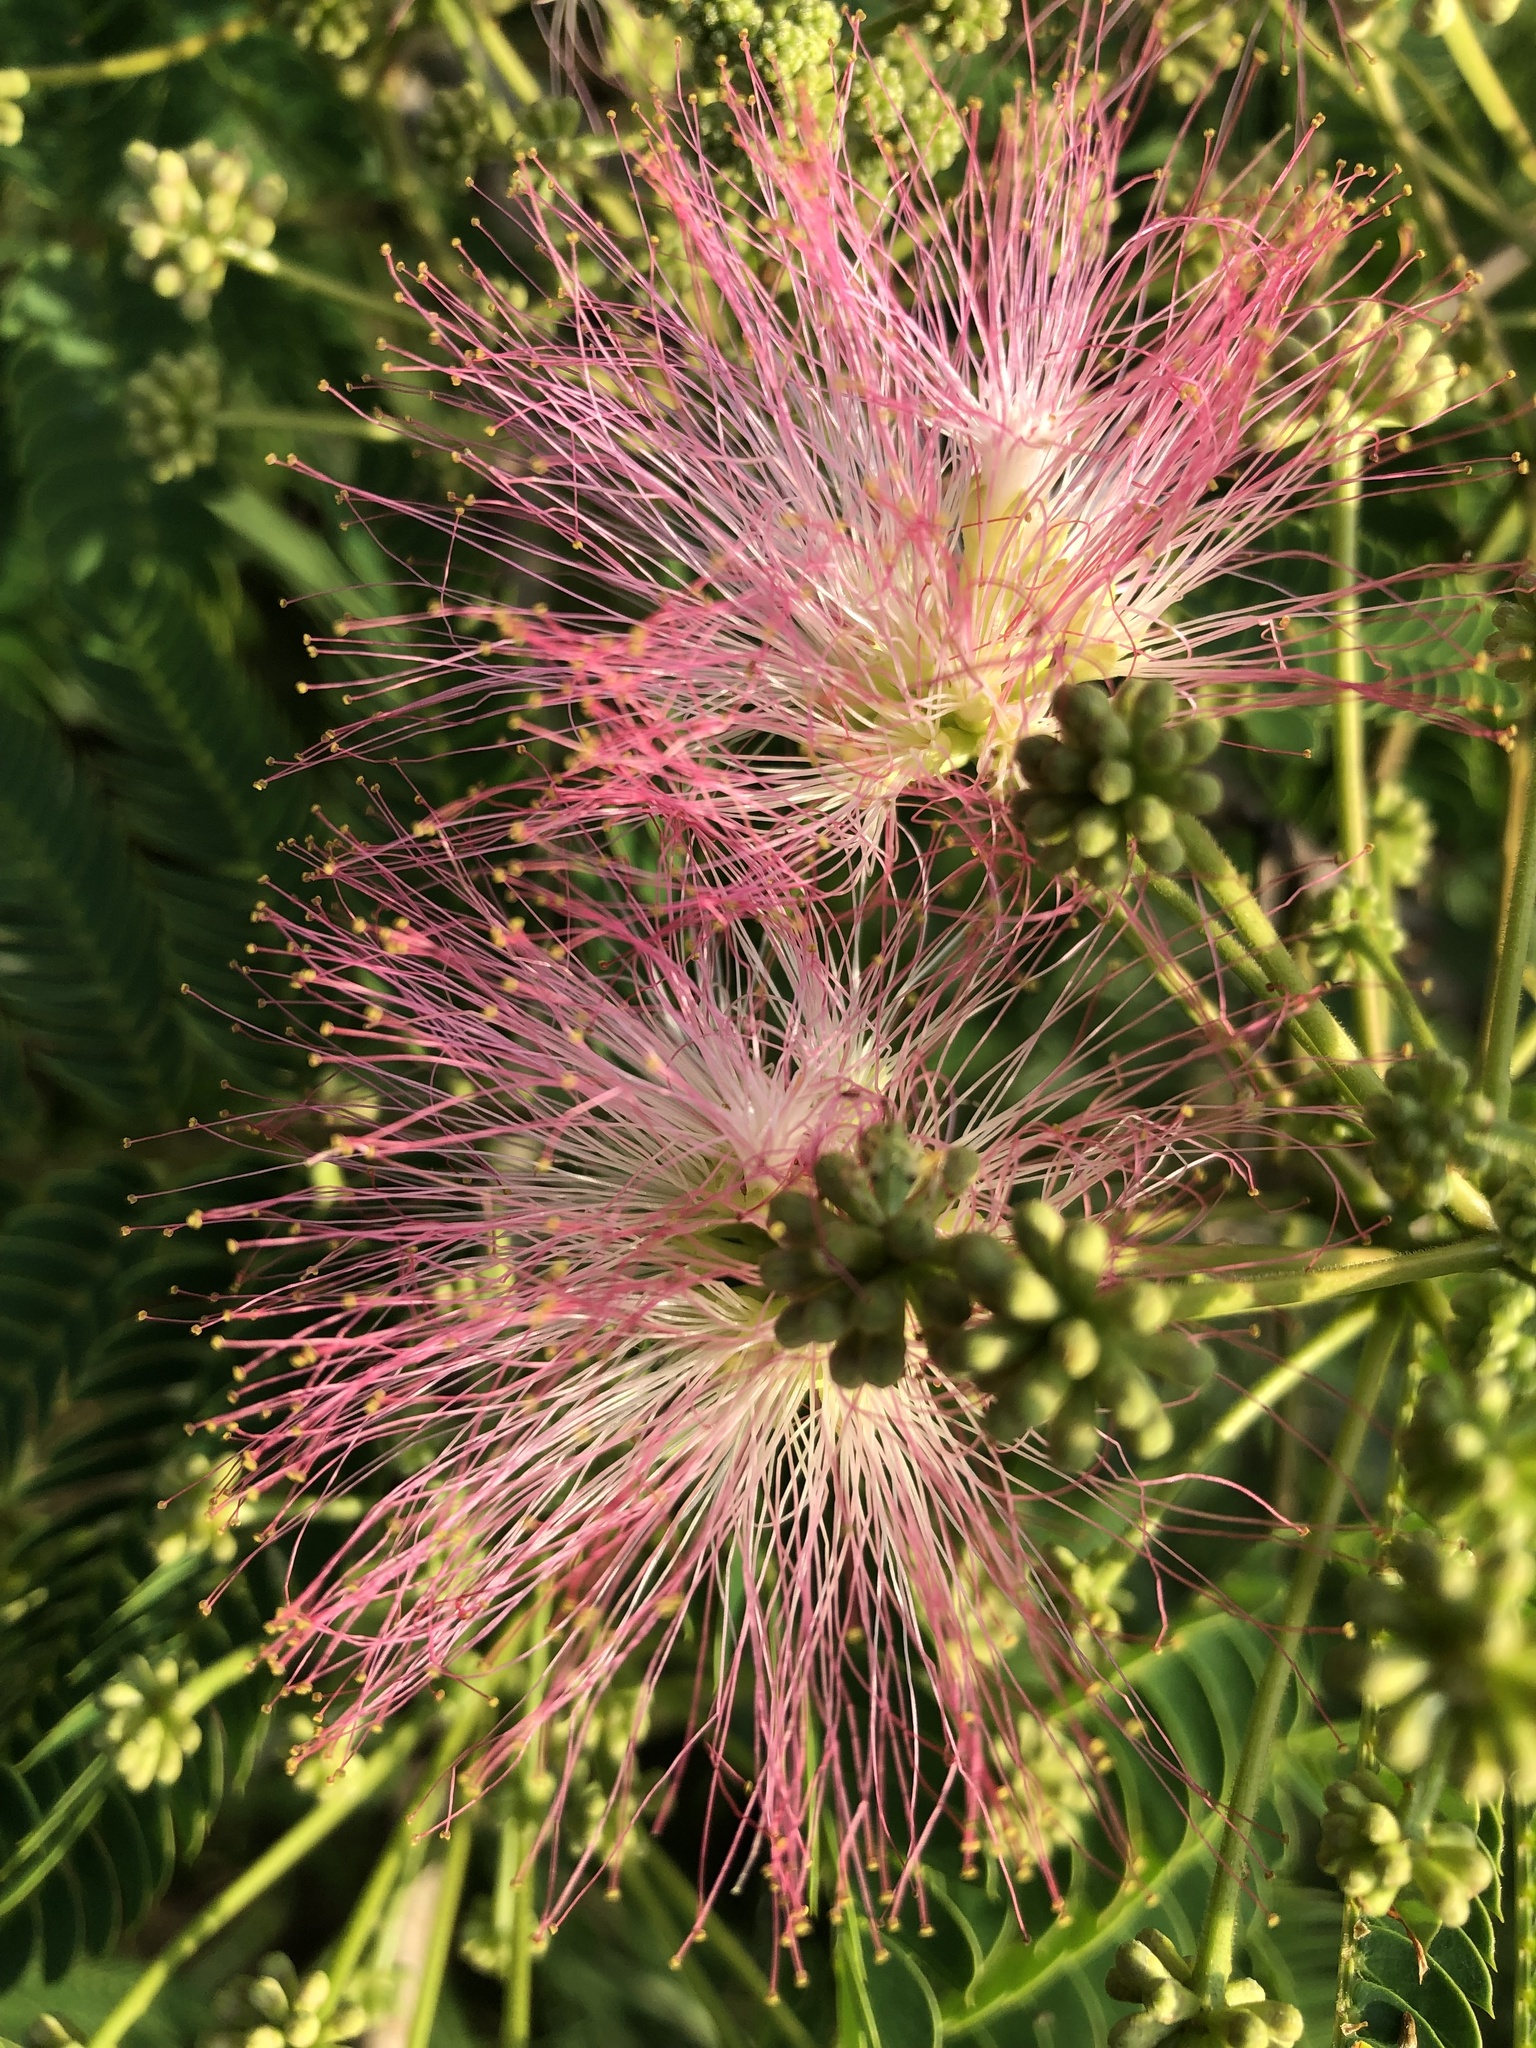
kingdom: Plantae
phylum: Tracheophyta
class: Magnoliopsida
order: Fabales
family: Fabaceae
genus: Albizia
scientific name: Albizia julibrissin
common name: Silktree
